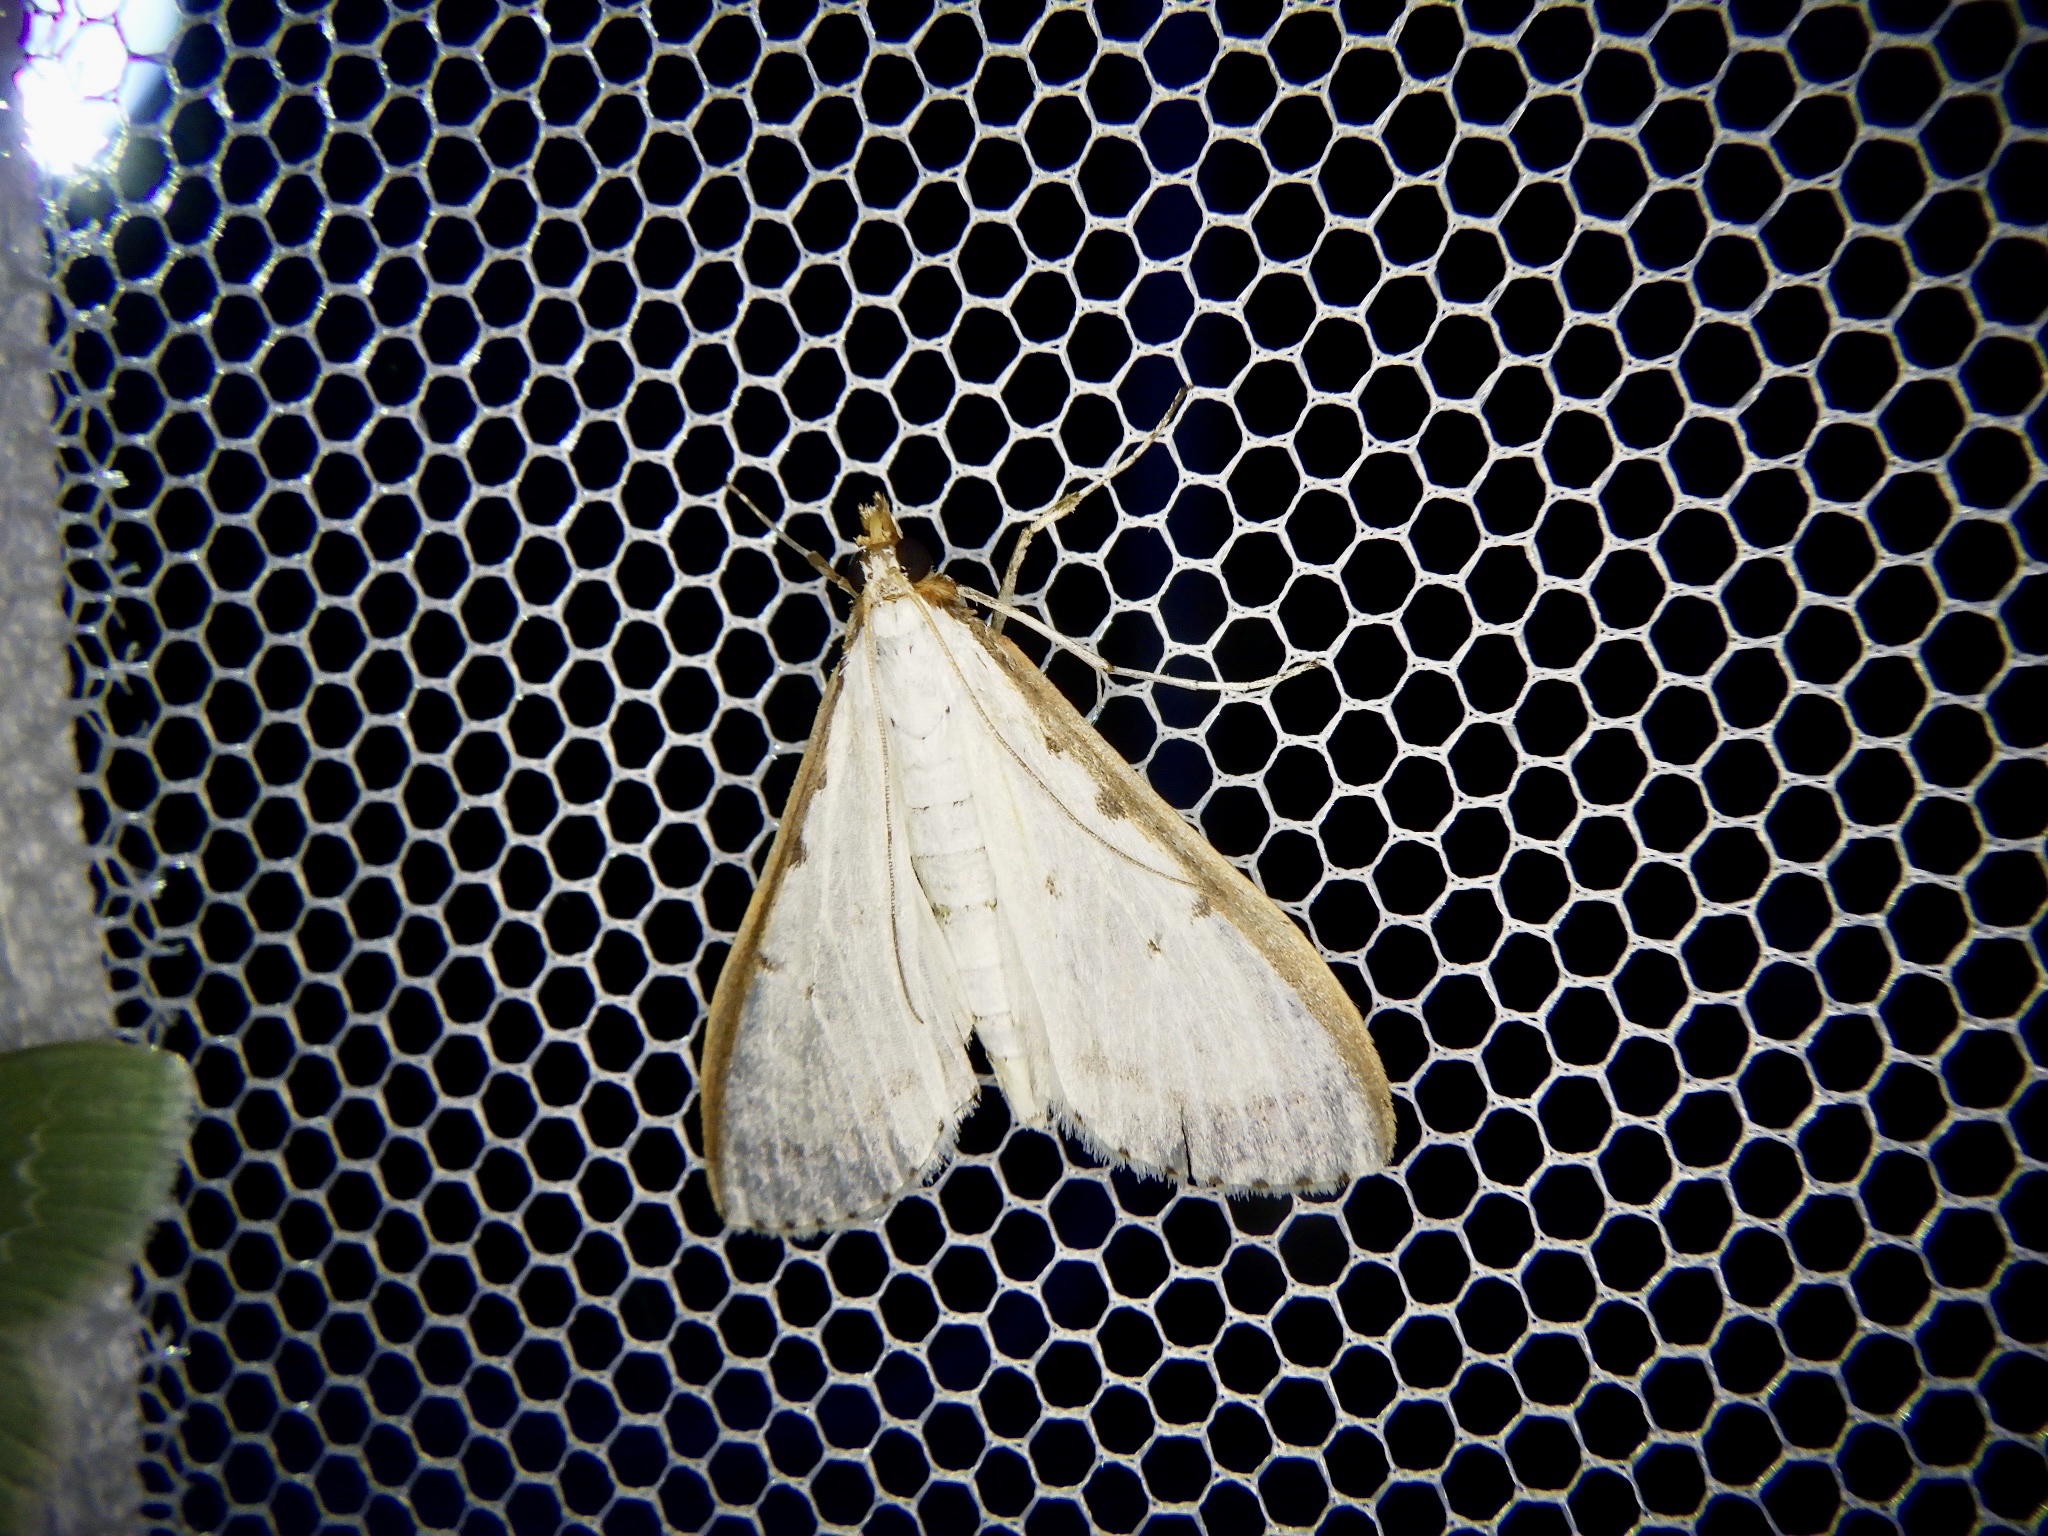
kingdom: Animalia
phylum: Arthropoda
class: Insecta
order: Lepidoptera
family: Crambidae
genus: Palpita
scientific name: Palpita nigropunctalis
